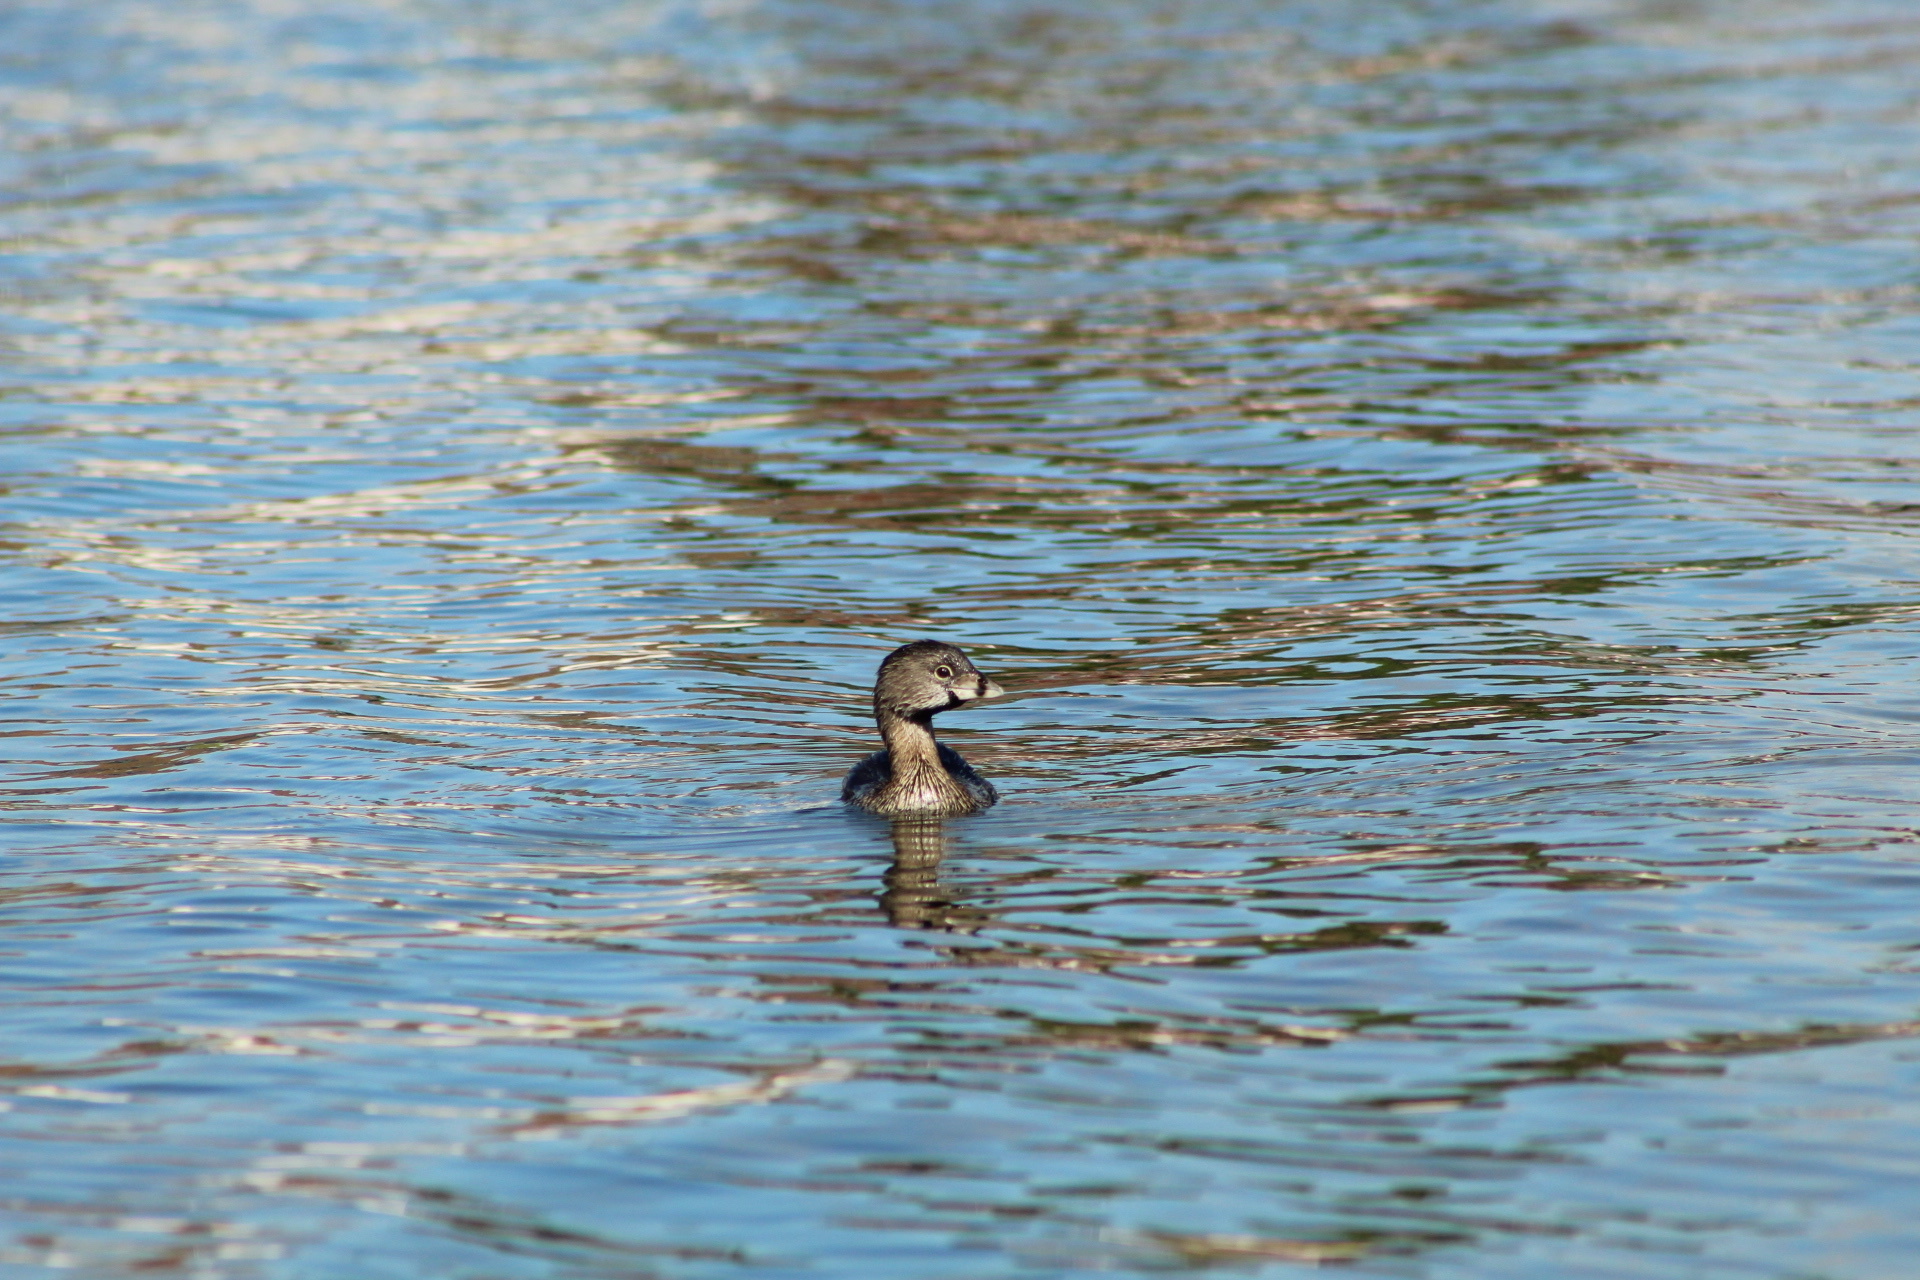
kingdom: Animalia
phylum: Chordata
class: Aves
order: Podicipediformes
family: Podicipedidae
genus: Podilymbus
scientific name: Podilymbus podiceps
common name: Pied-billed grebe
